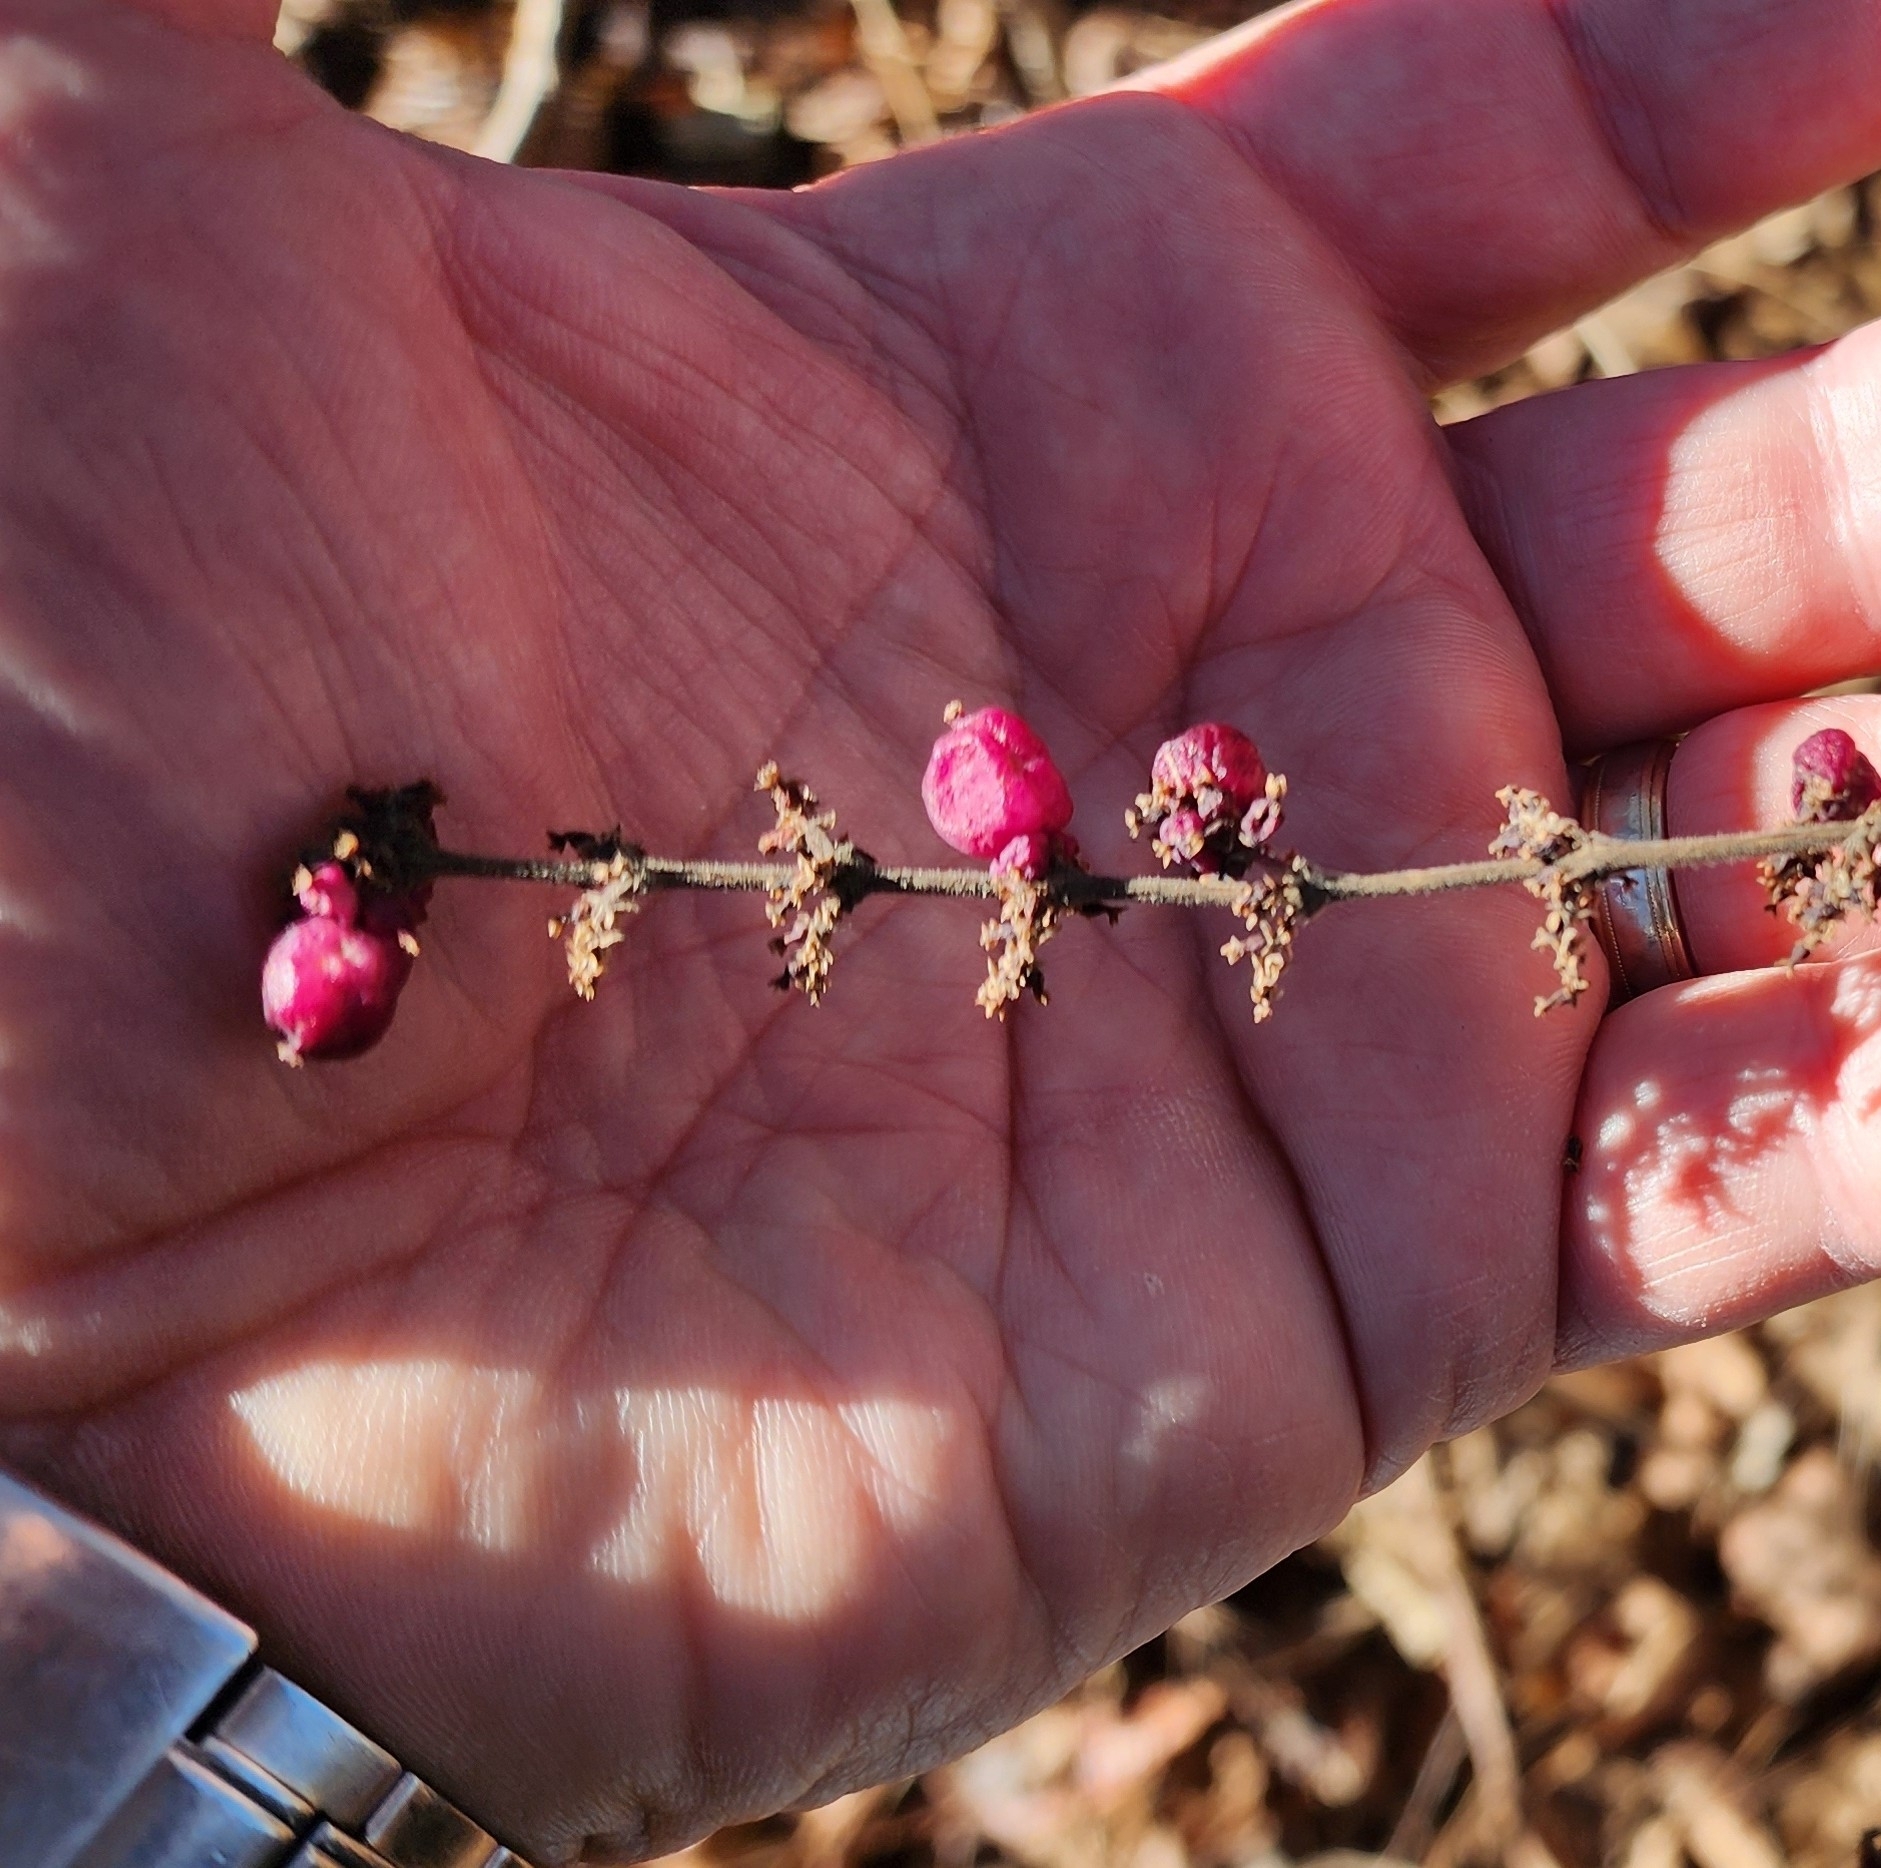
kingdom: Plantae
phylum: Tracheophyta
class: Magnoliopsida
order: Dipsacales
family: Caprifoliaceae
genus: Symphoricarpos
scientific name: Symphoricarpos orbiculatus
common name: Coralberry
